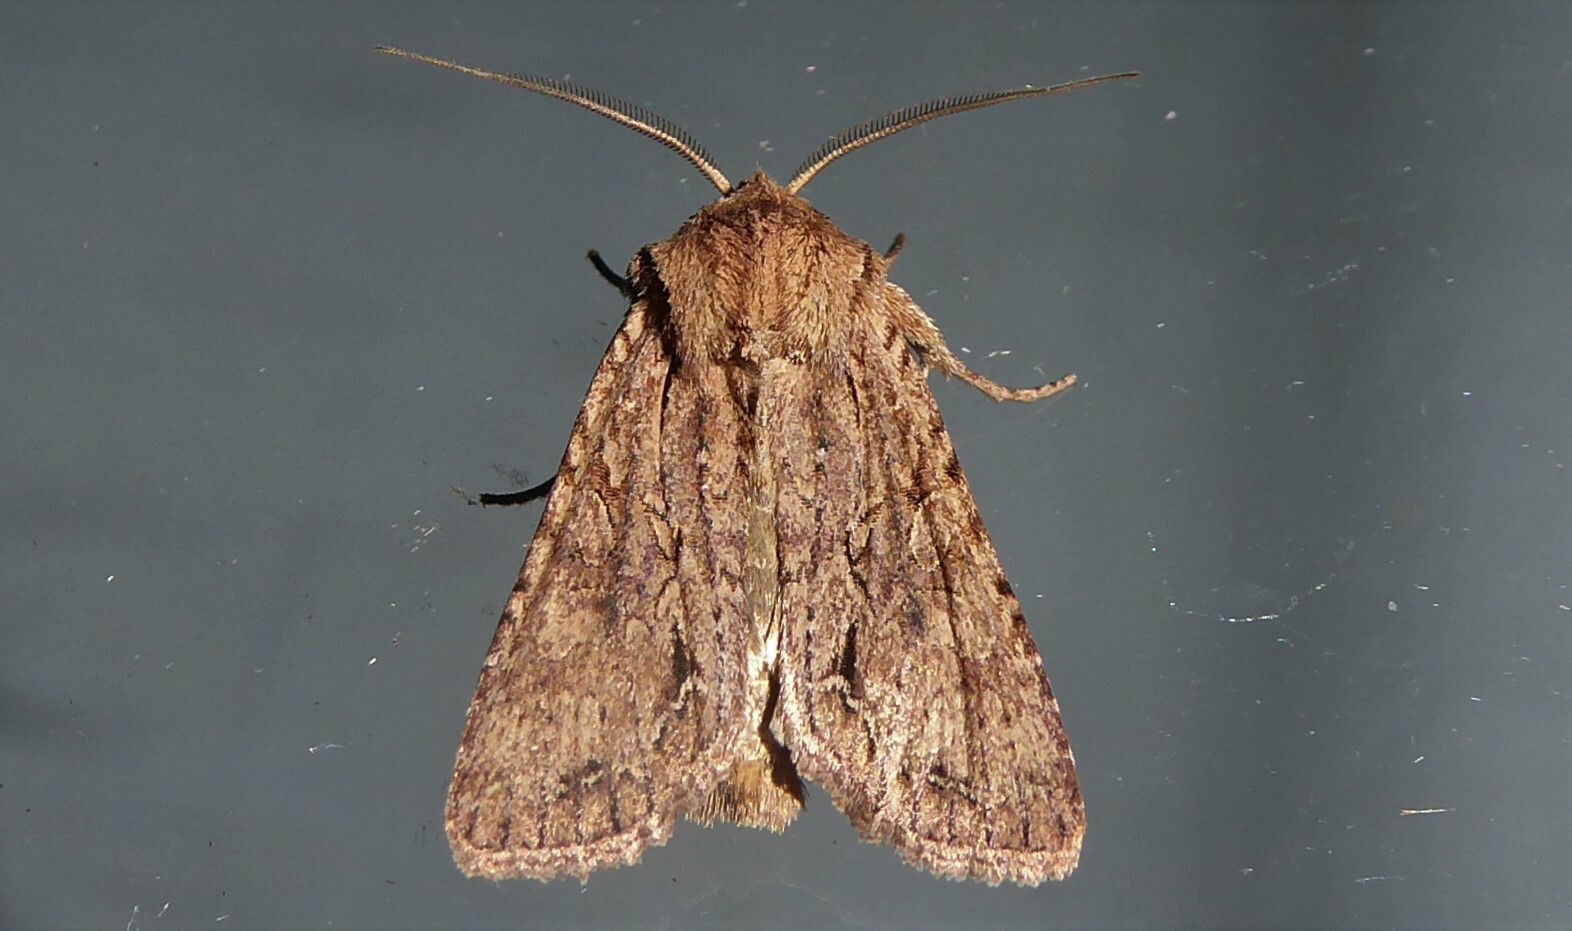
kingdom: Animalia
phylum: Arthropoda
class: Insecta
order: Lepidoptera
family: Noctuidae
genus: Ichneutica
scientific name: Ichneutica
